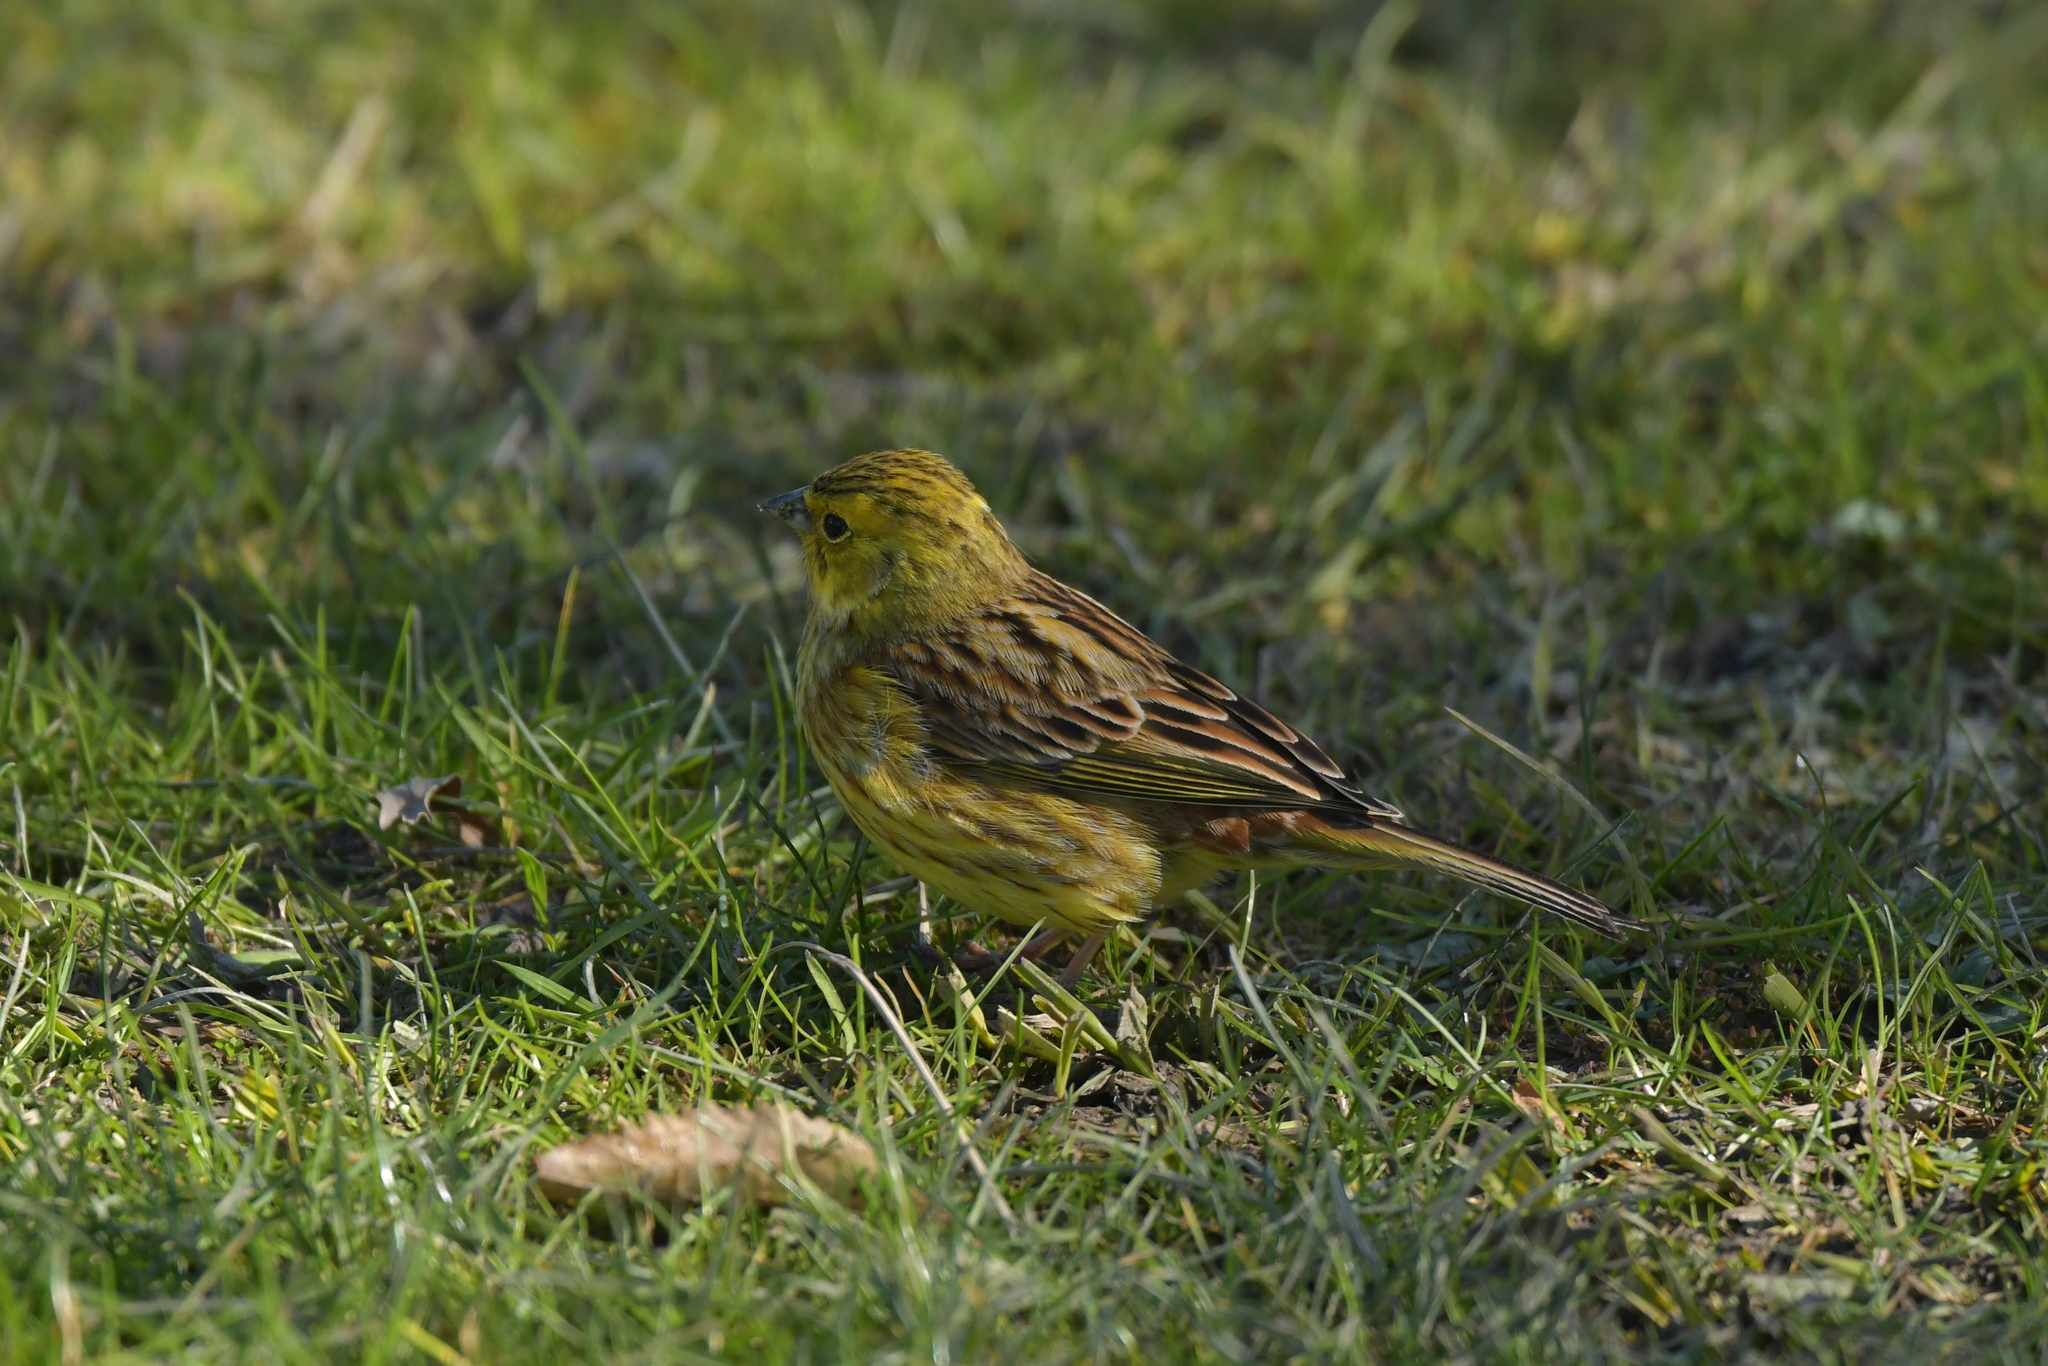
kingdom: Animalia
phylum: Chordata
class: Aves
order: Passeriformes
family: Emberizidae
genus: Emberiza
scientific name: Emberiza citrinella
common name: Yellowhammer
